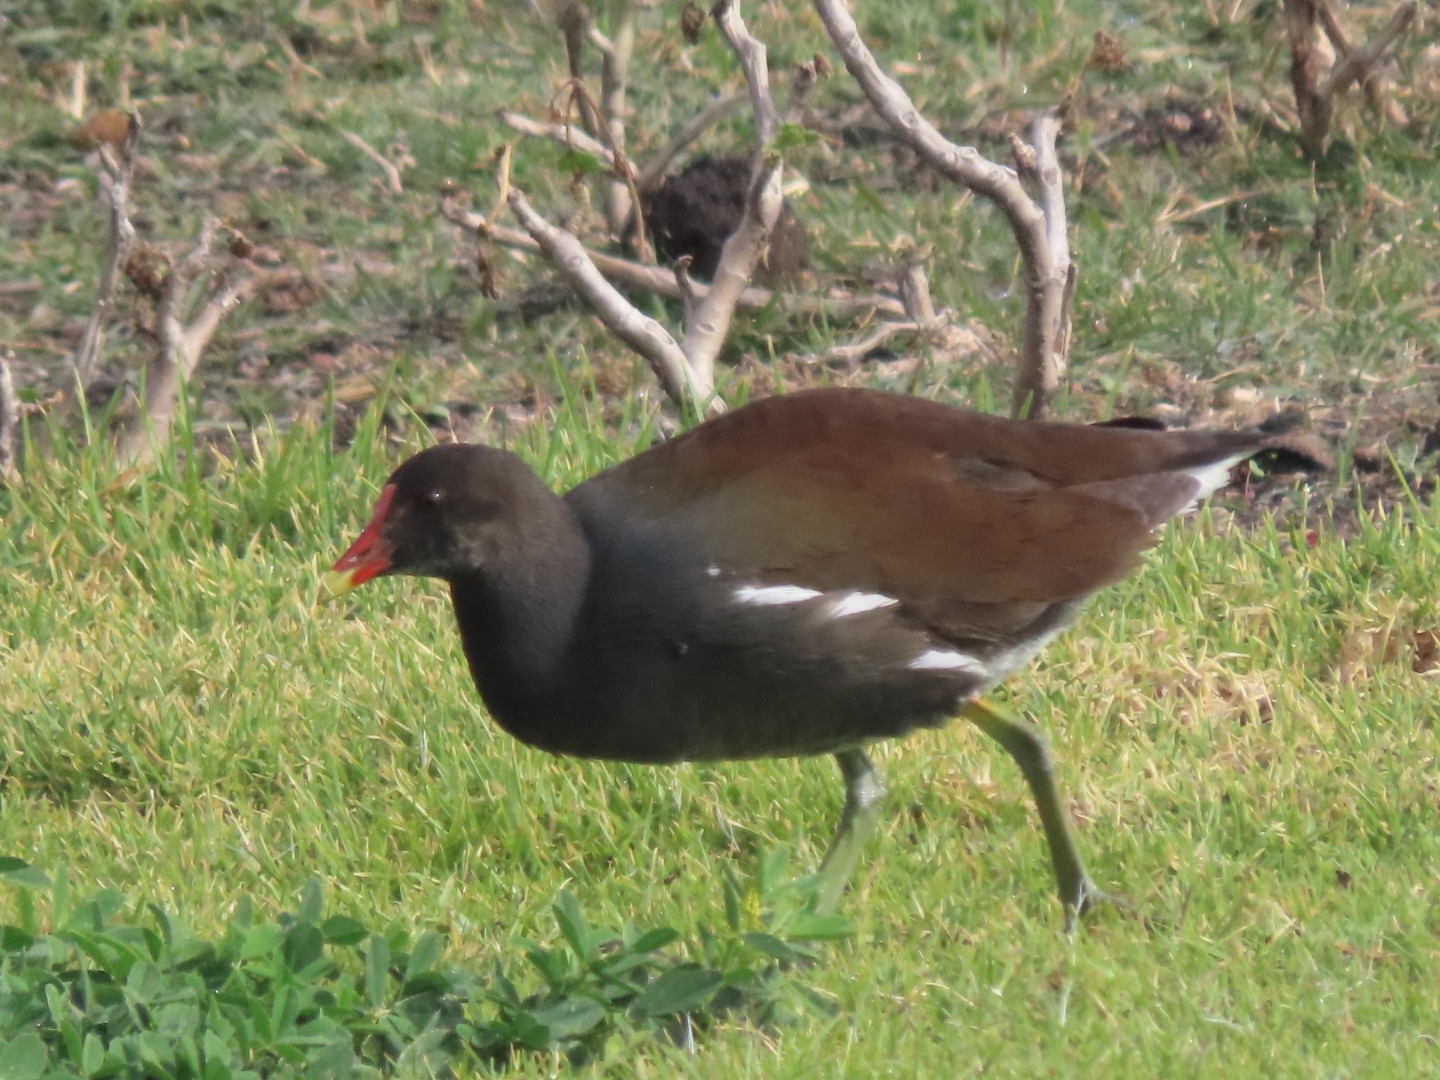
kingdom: Animalia
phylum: Chordata
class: Aves
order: Gruiformes
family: Rallidae
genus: Gallinula
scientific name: Gallinula chloropus
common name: Common moorhen
